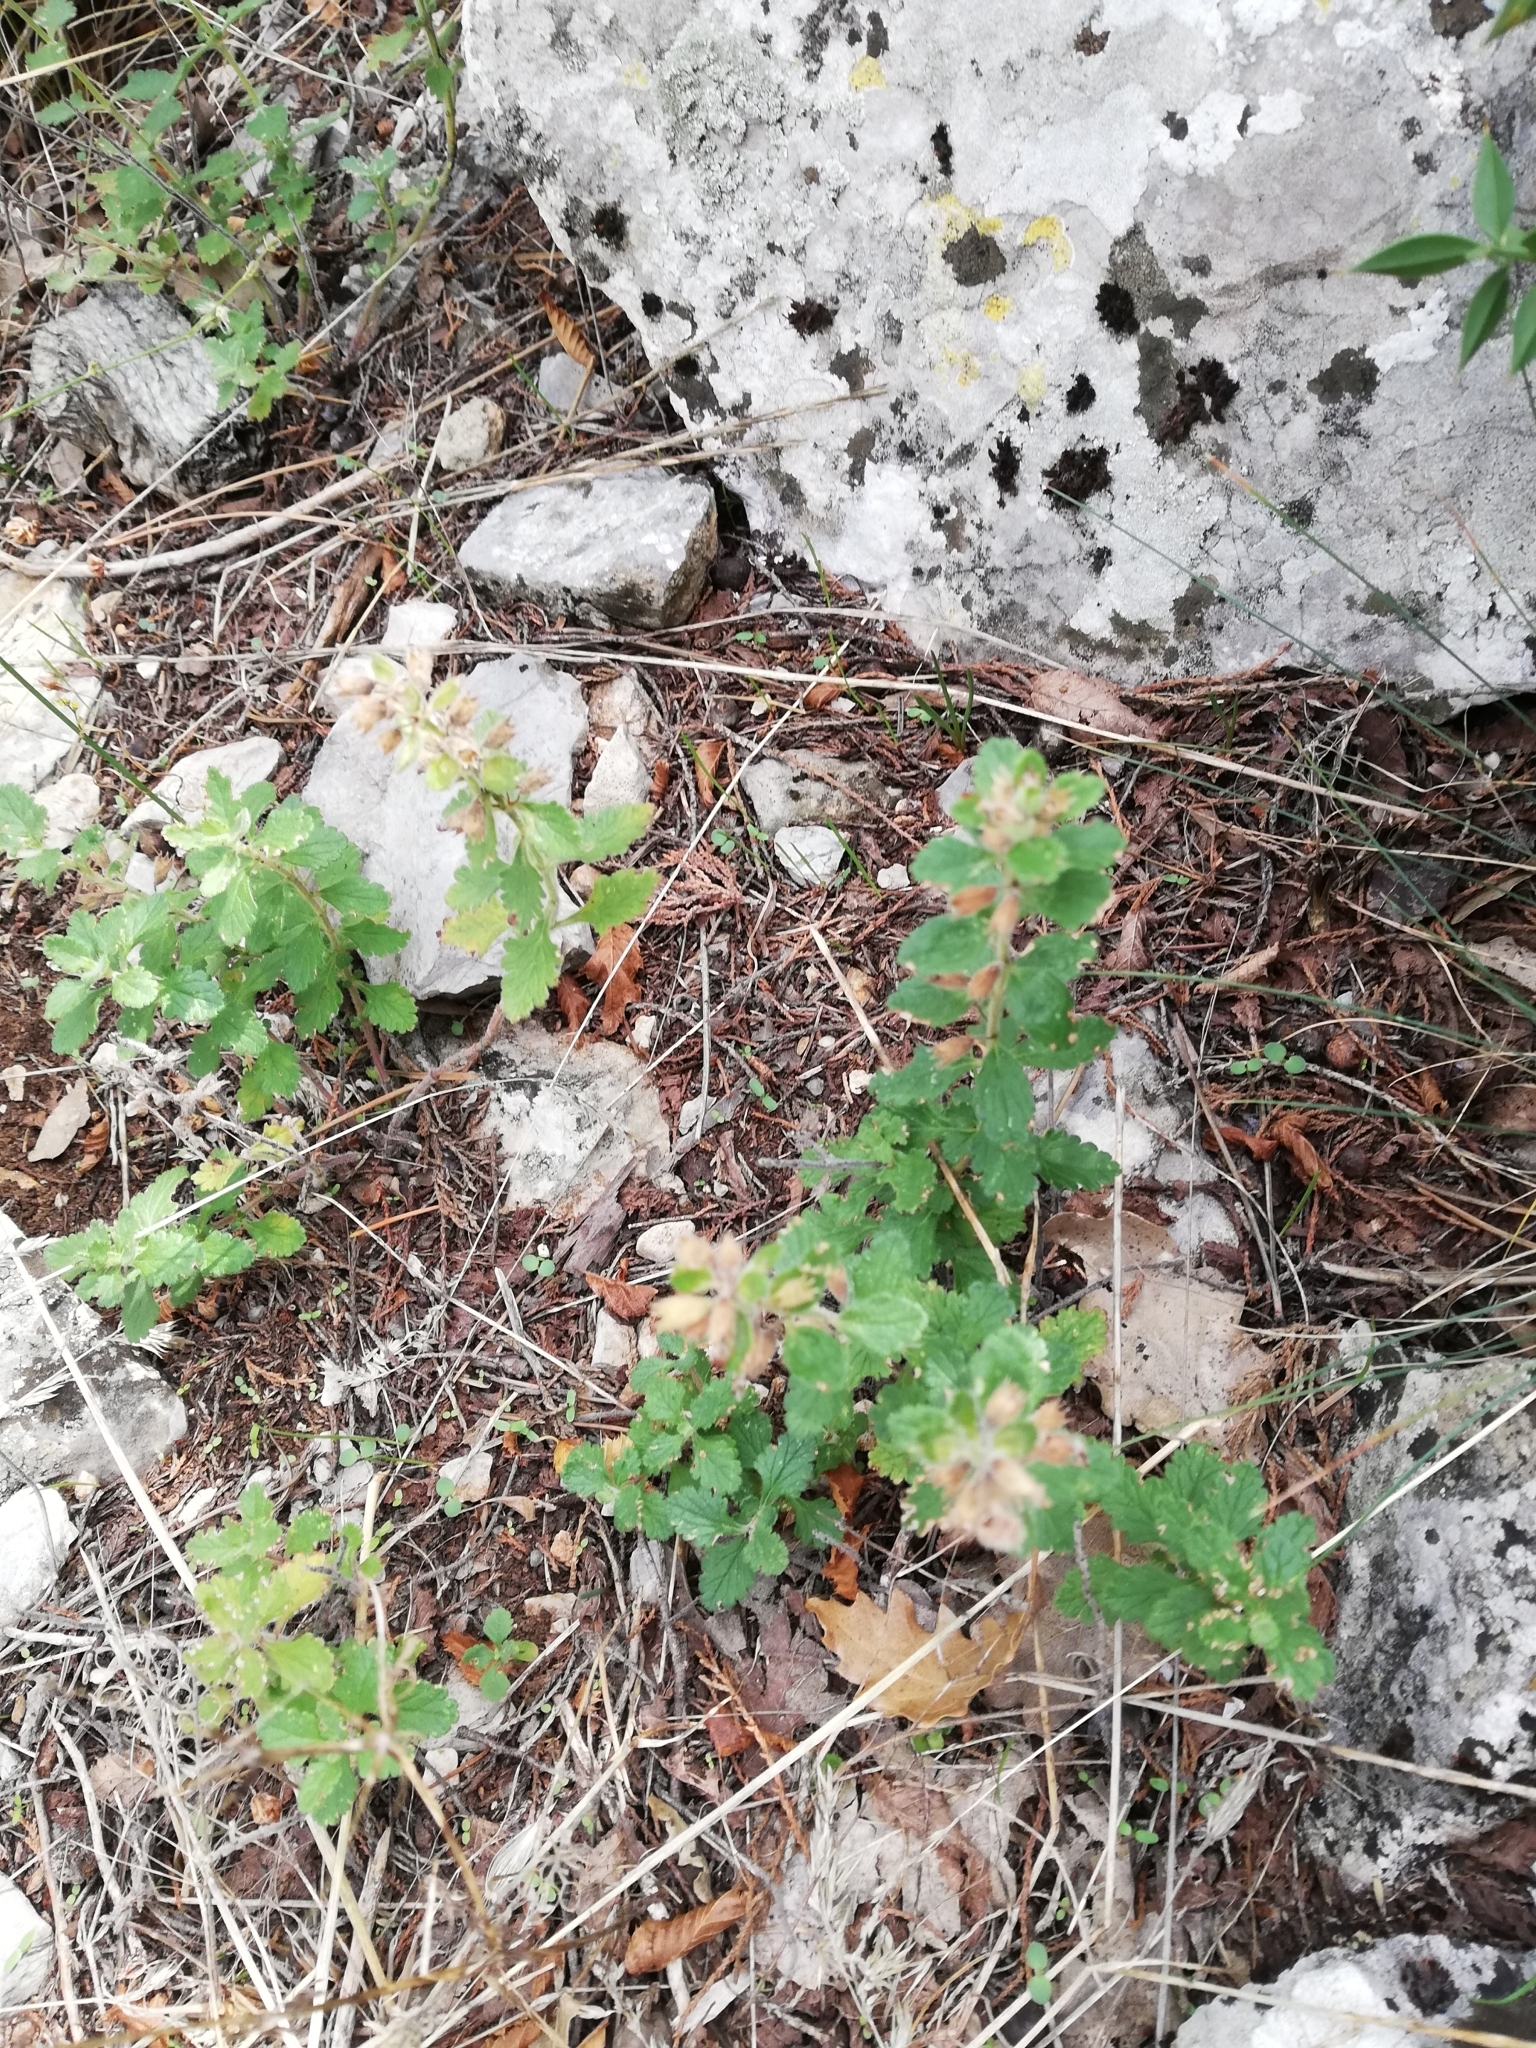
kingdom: Plantae
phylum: Tracheophyta
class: Magnoliopsida
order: Lamiales
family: Lamiaceae
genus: Teucrium
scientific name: Teucrium chamaedrys
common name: Wall germander
